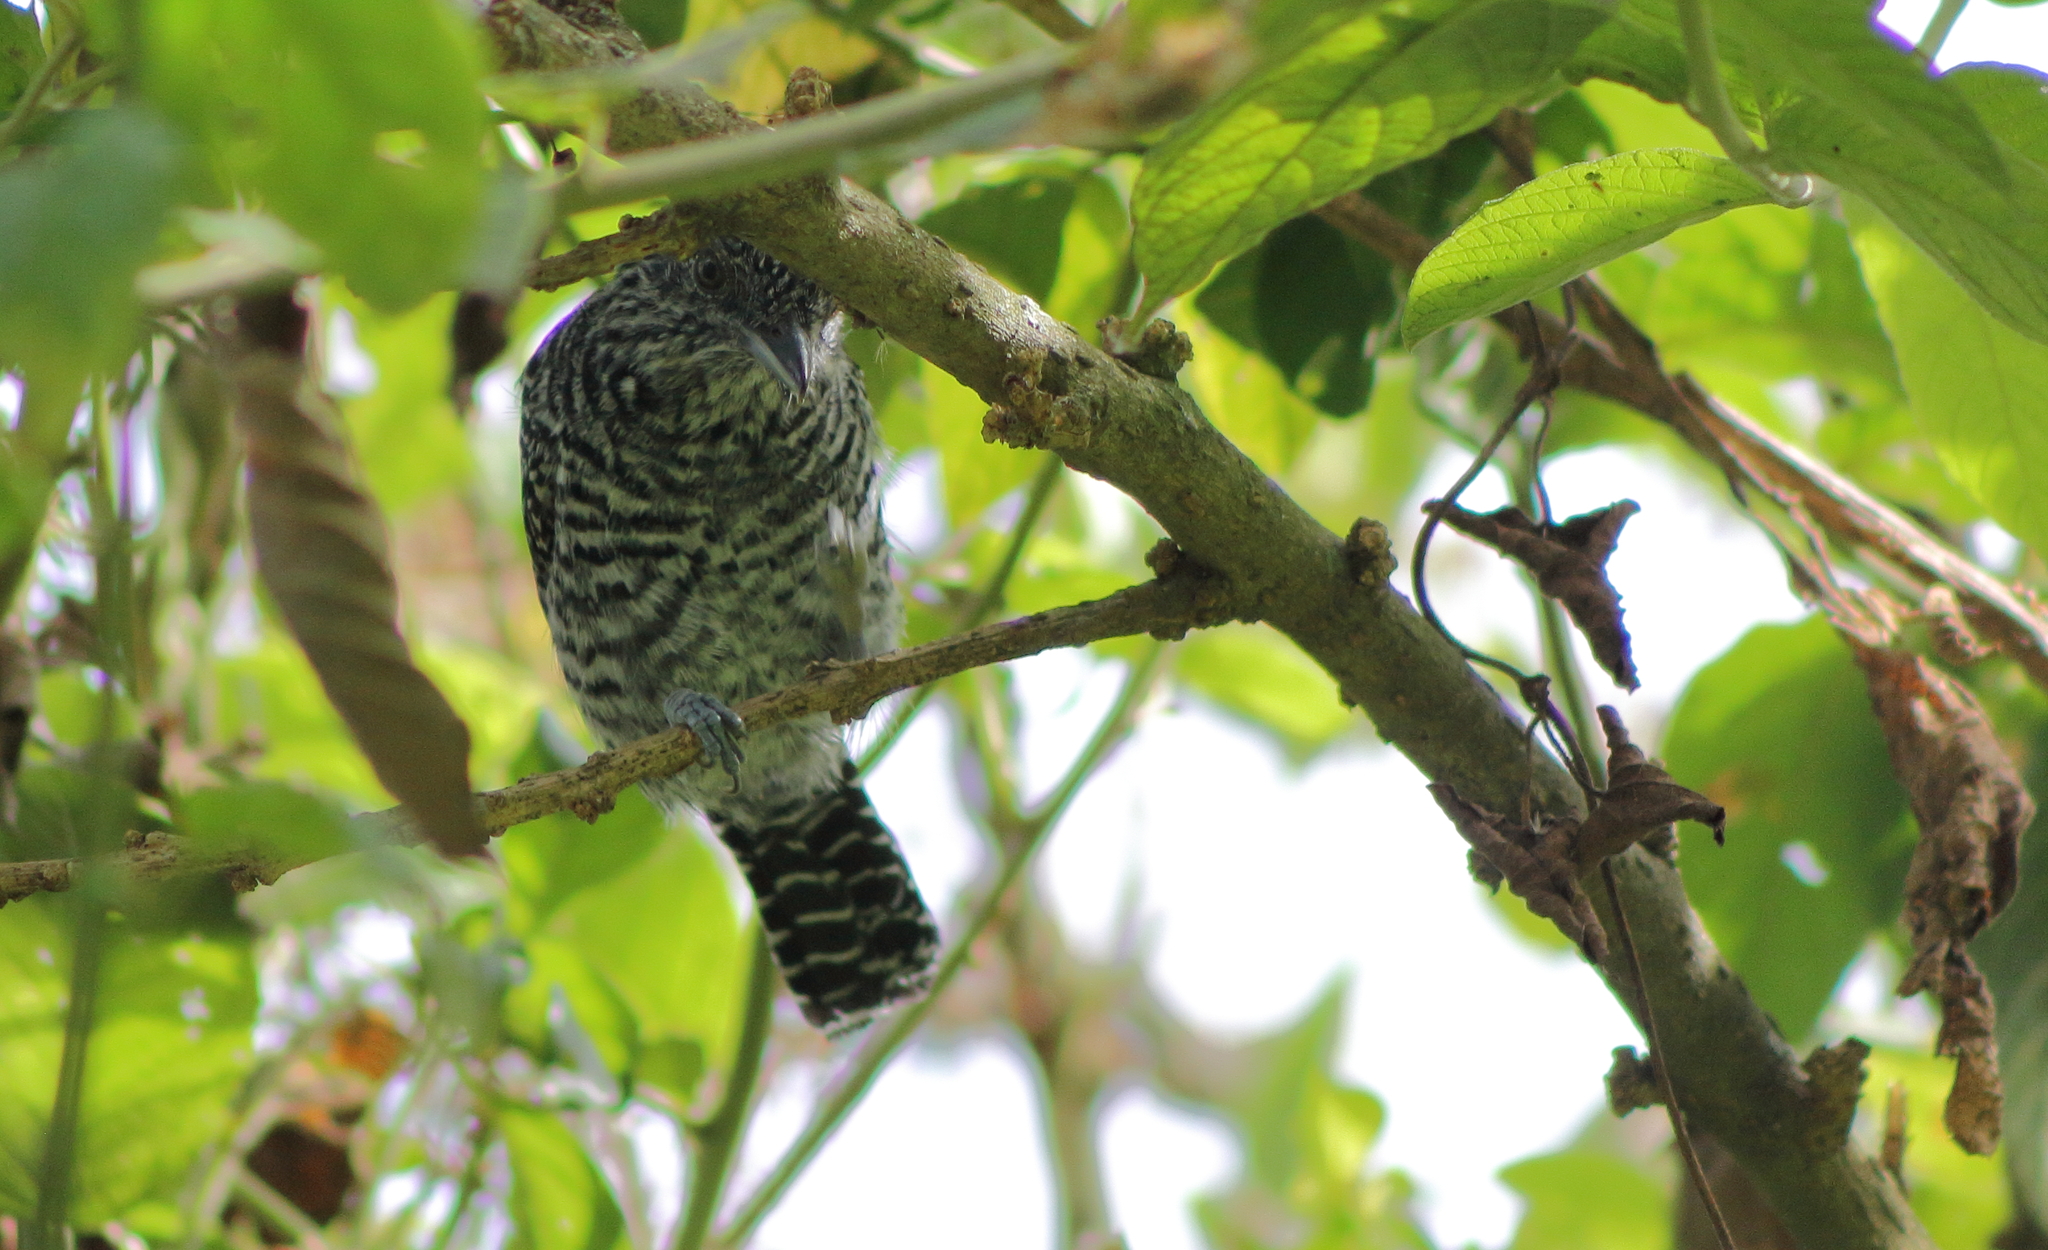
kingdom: Animalia
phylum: Chordata
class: Aves
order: Passeriformes
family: Thamnophilidae
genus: Thamnophilus
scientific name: Thamnophilus multistriatus
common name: Bar-crested antshrike
